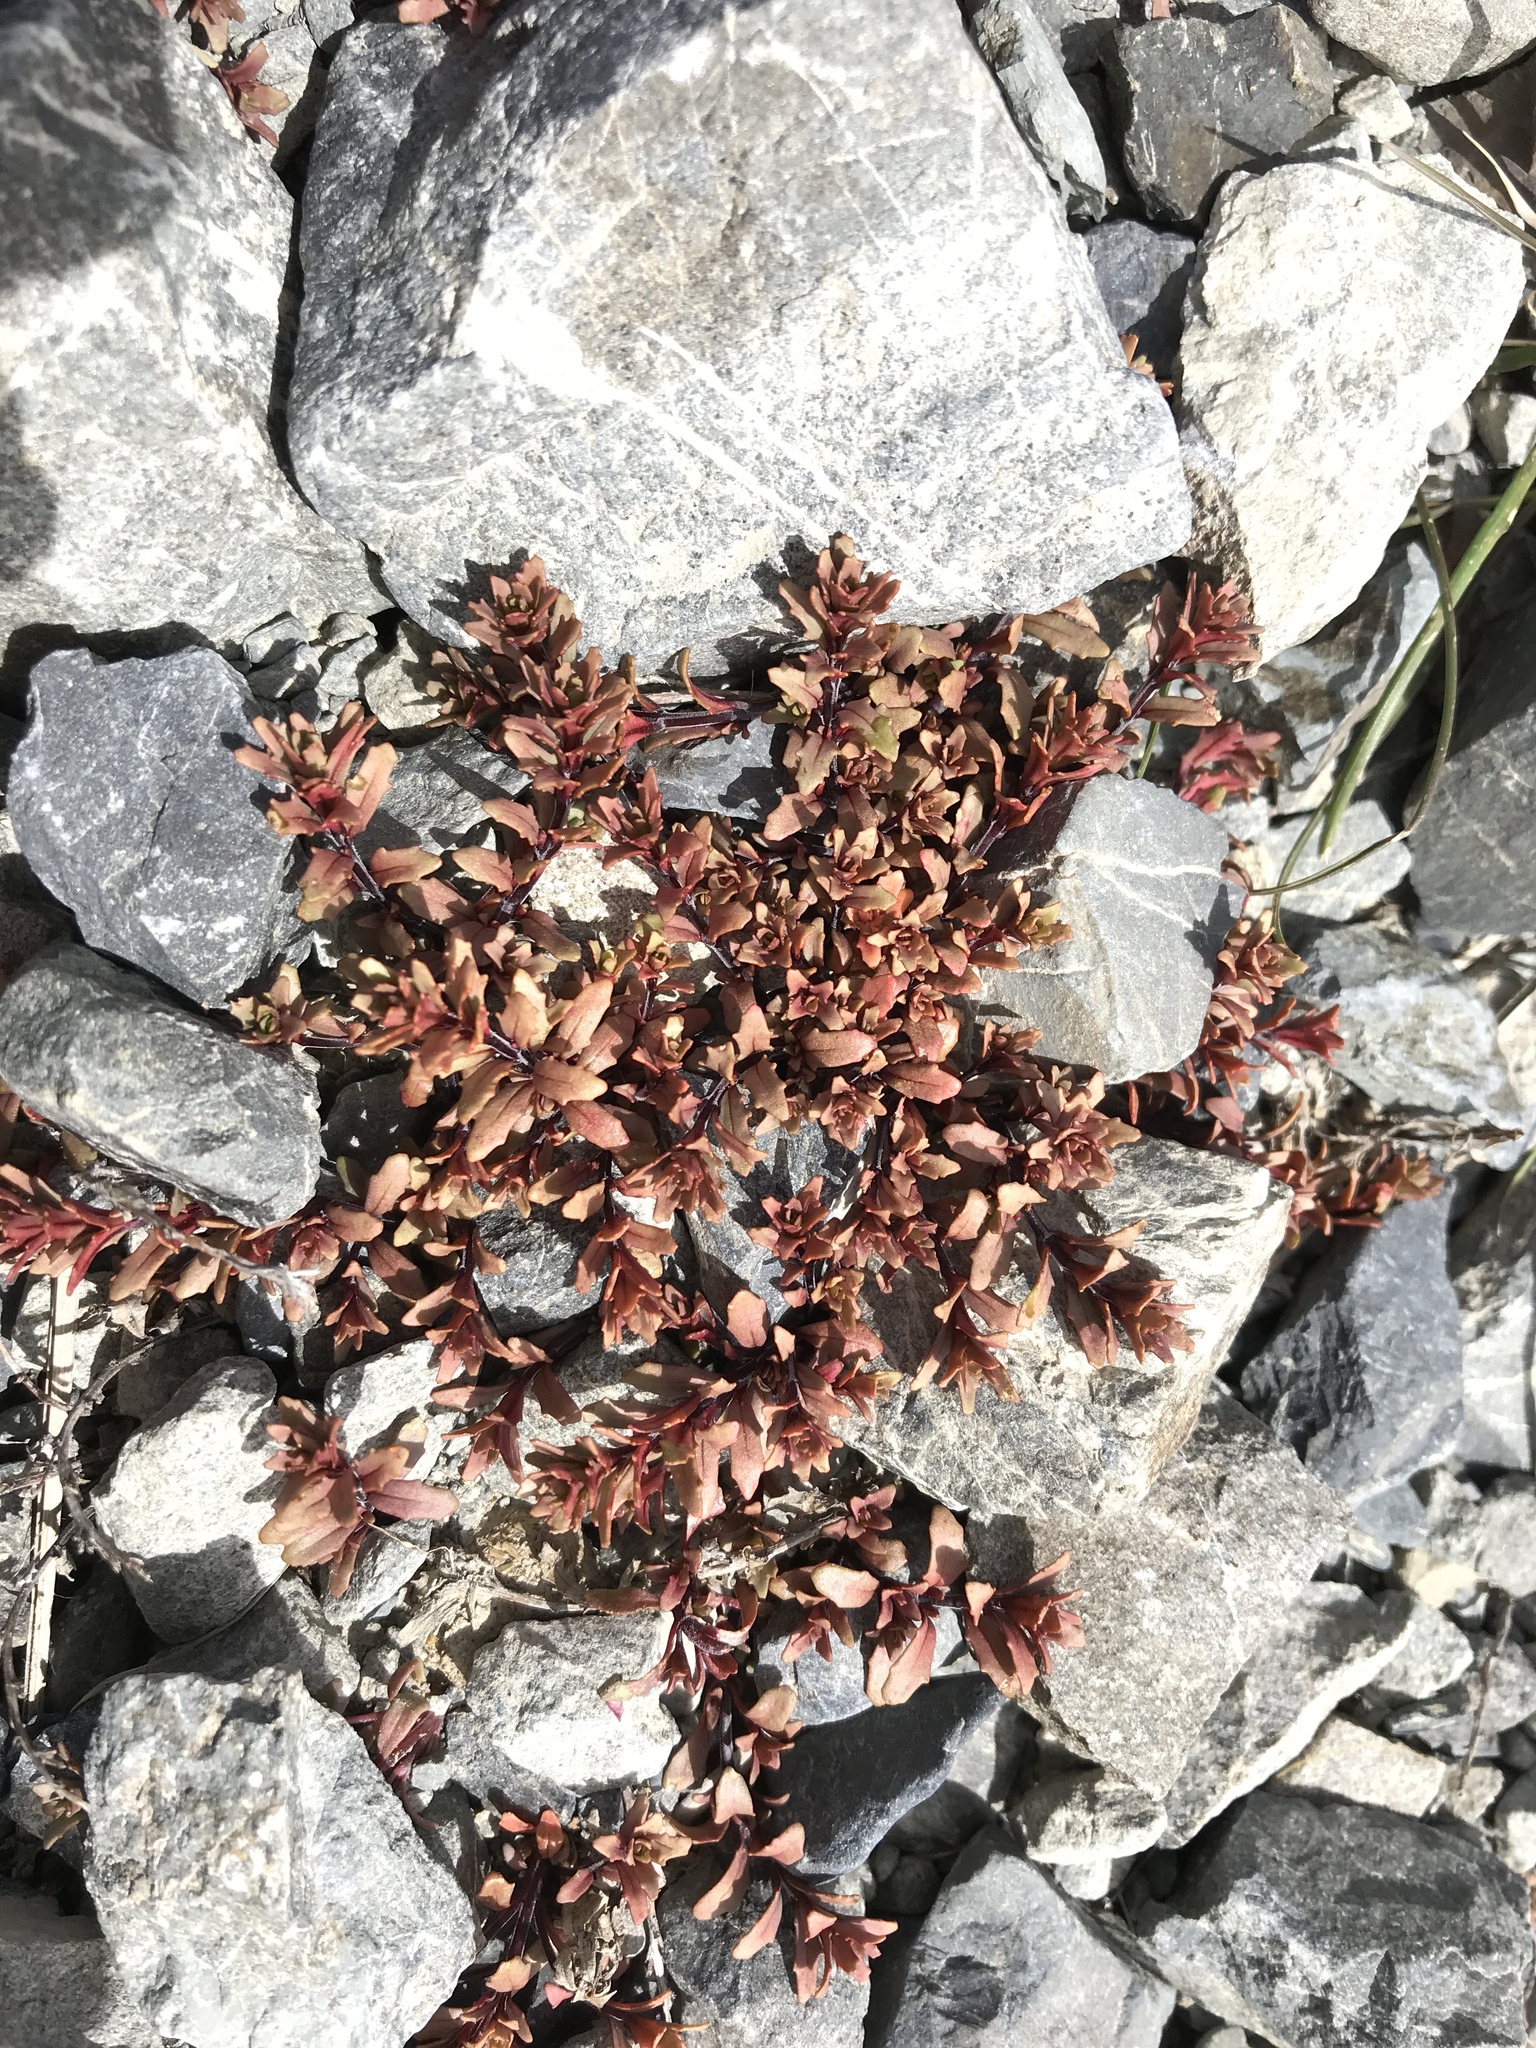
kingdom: Plantae
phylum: Tracheophyta
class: Magnoliopsida
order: Myrtales
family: Onagraceae
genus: Epilobium
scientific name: Epilobium melanocaulon
